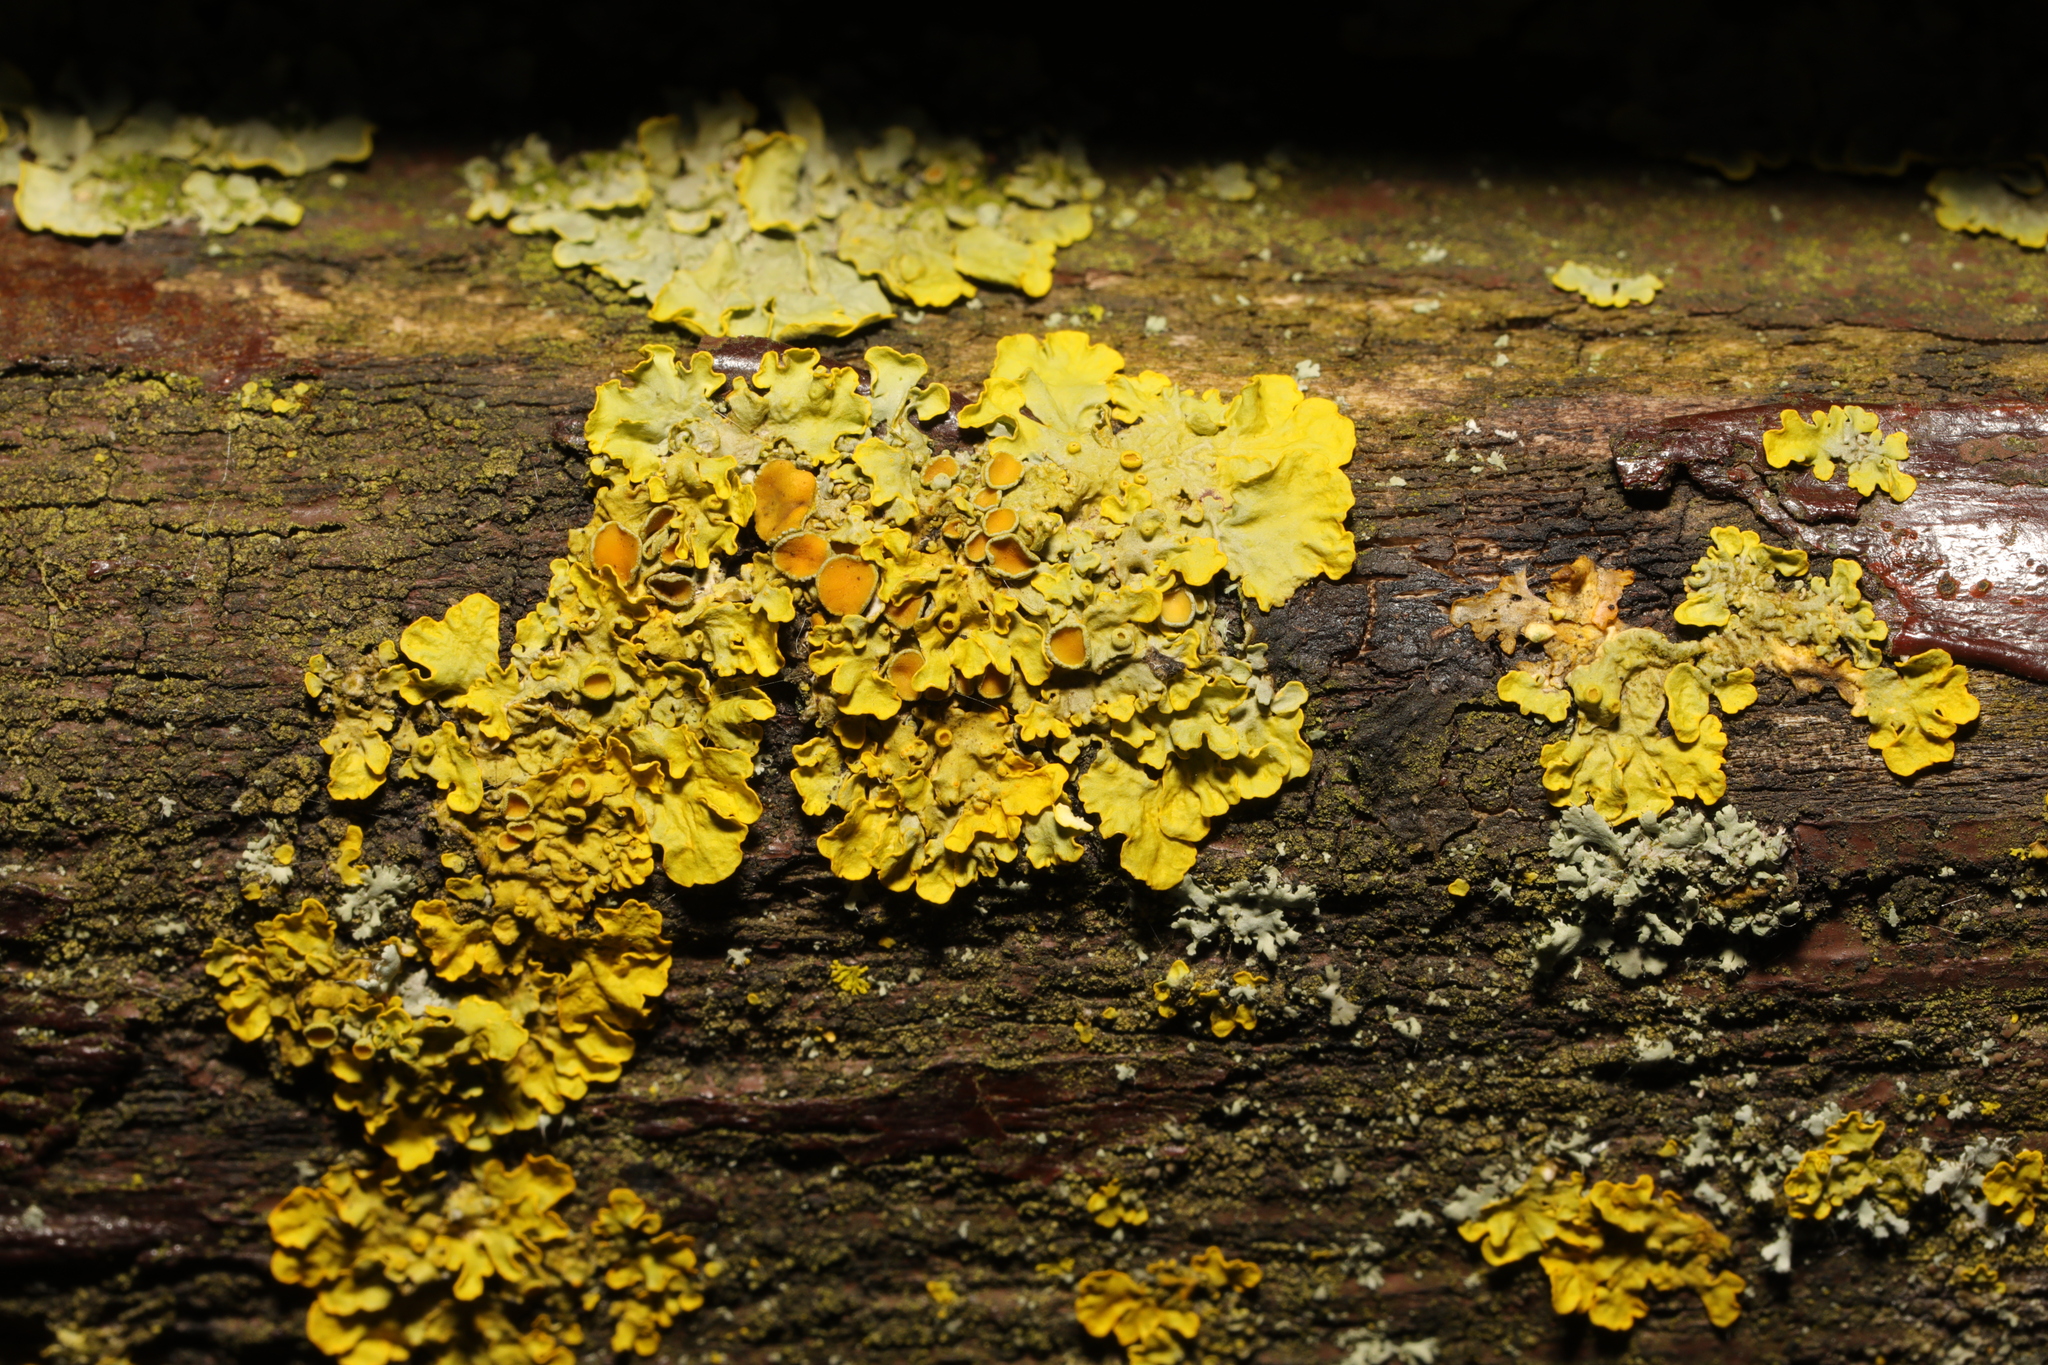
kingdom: Fungi
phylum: Ascomycota
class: Lecanoromycetes
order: Teloschistales
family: Teloschistaceae
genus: Xanthoria
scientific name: Xanthoria parietina
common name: Common orange lichen
